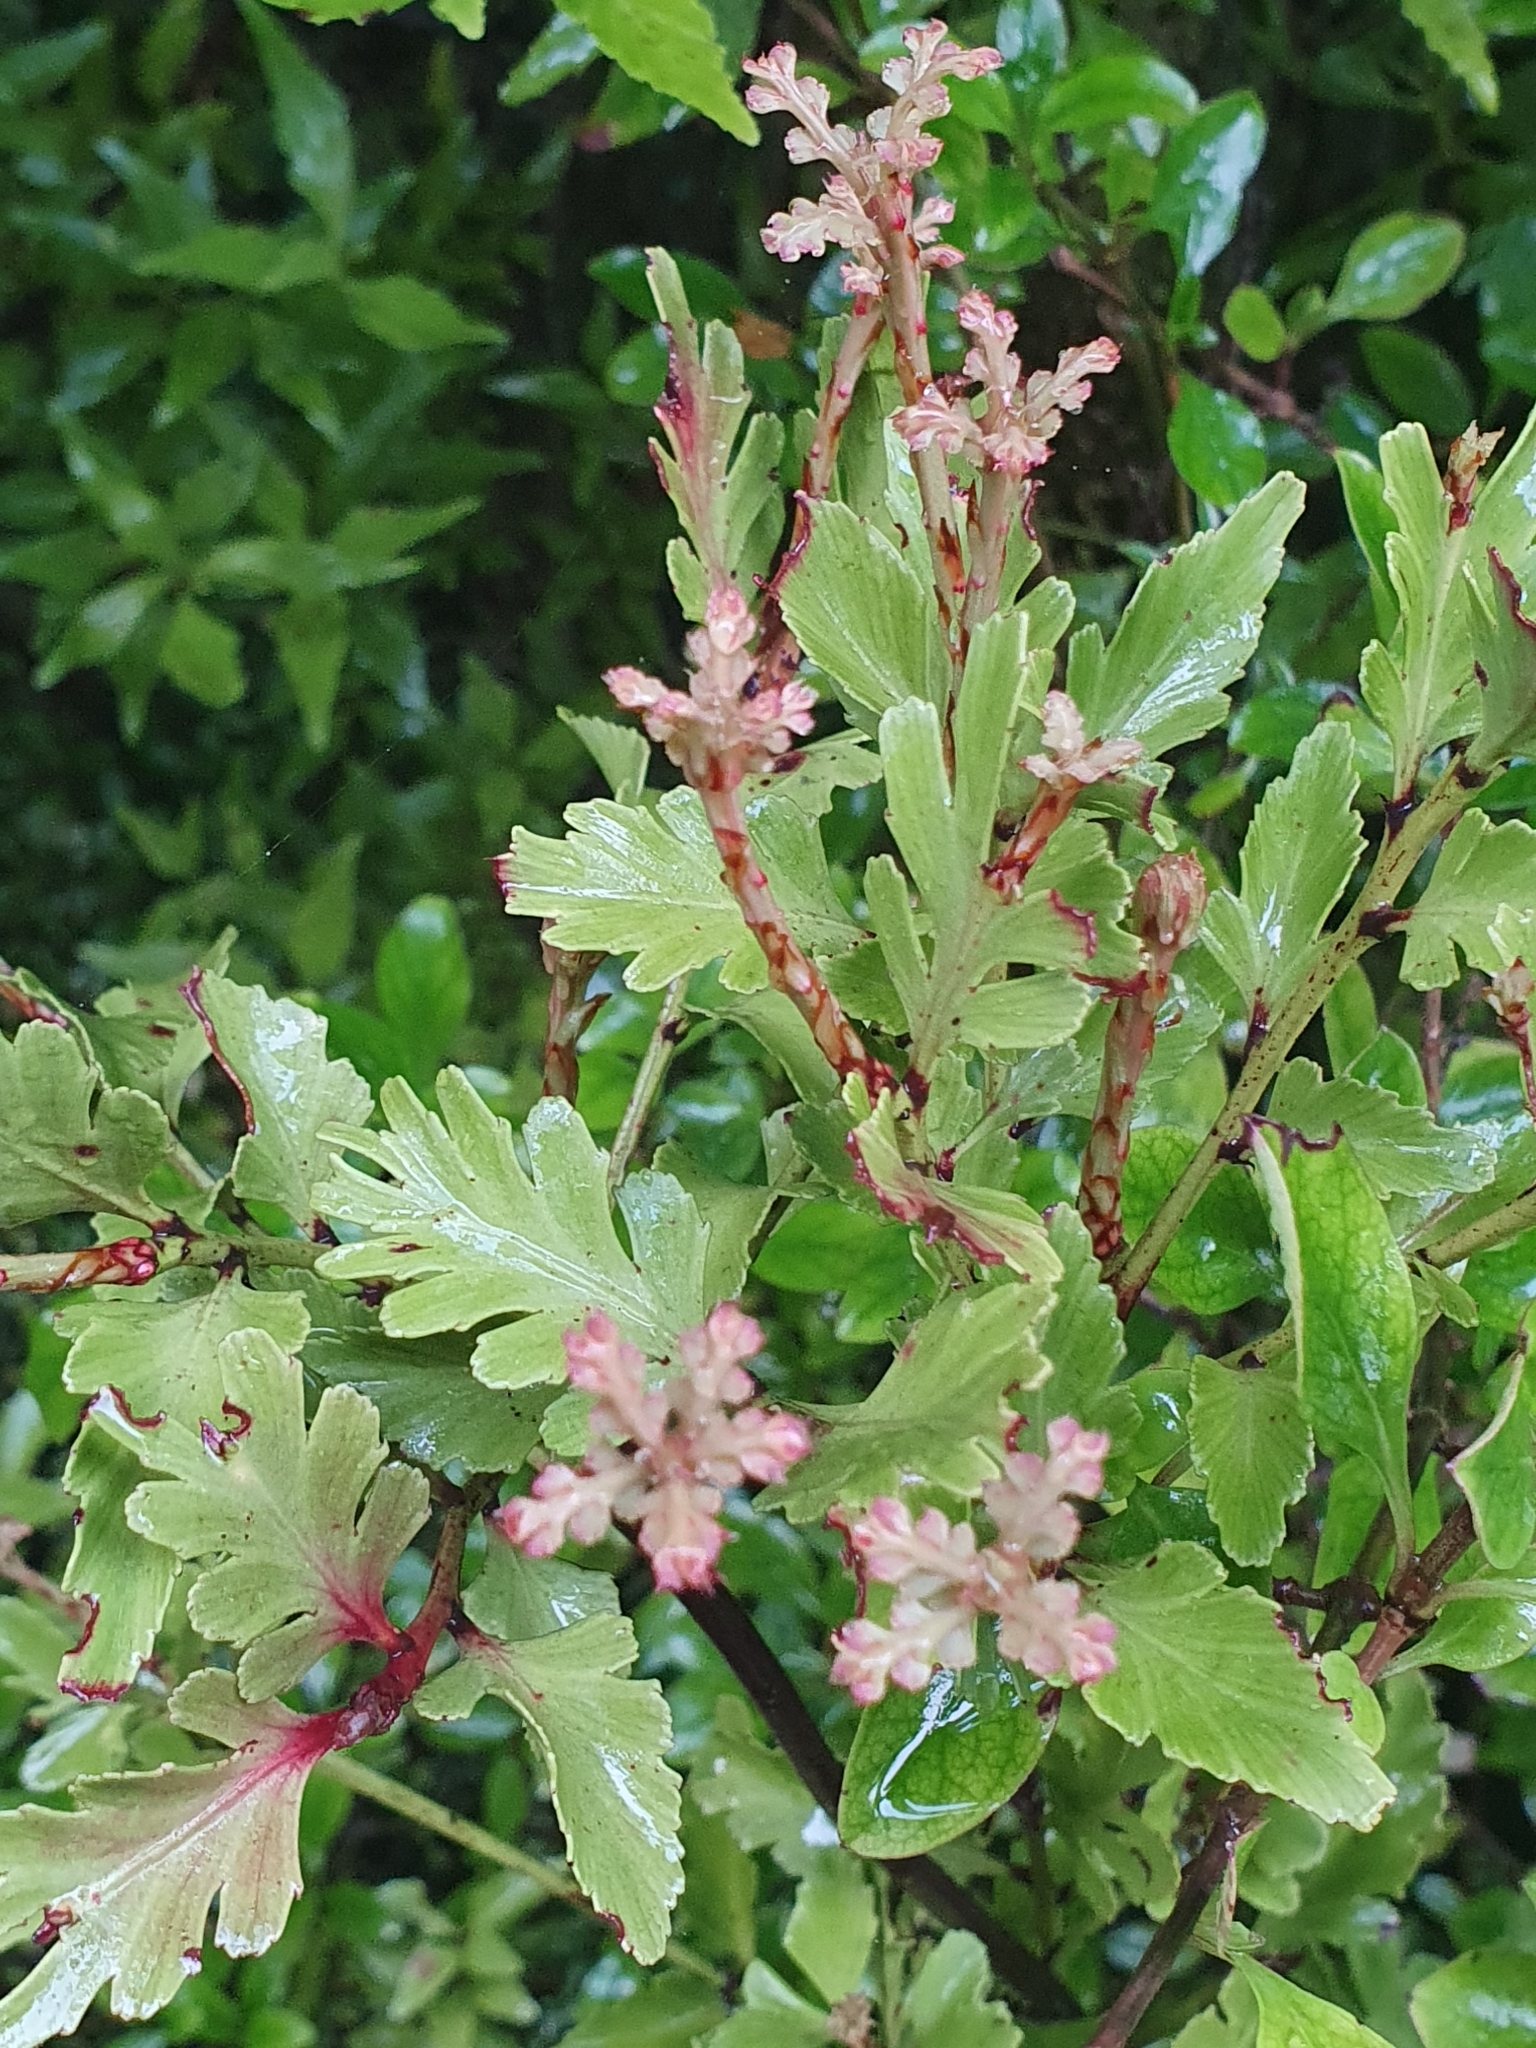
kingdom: Plantae
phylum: Tracheophyta
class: Pinopsida
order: Pinales
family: Phyllocladaceae
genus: Phyllocladus
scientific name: Phyllocladus trichomanoides
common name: Celery pine
